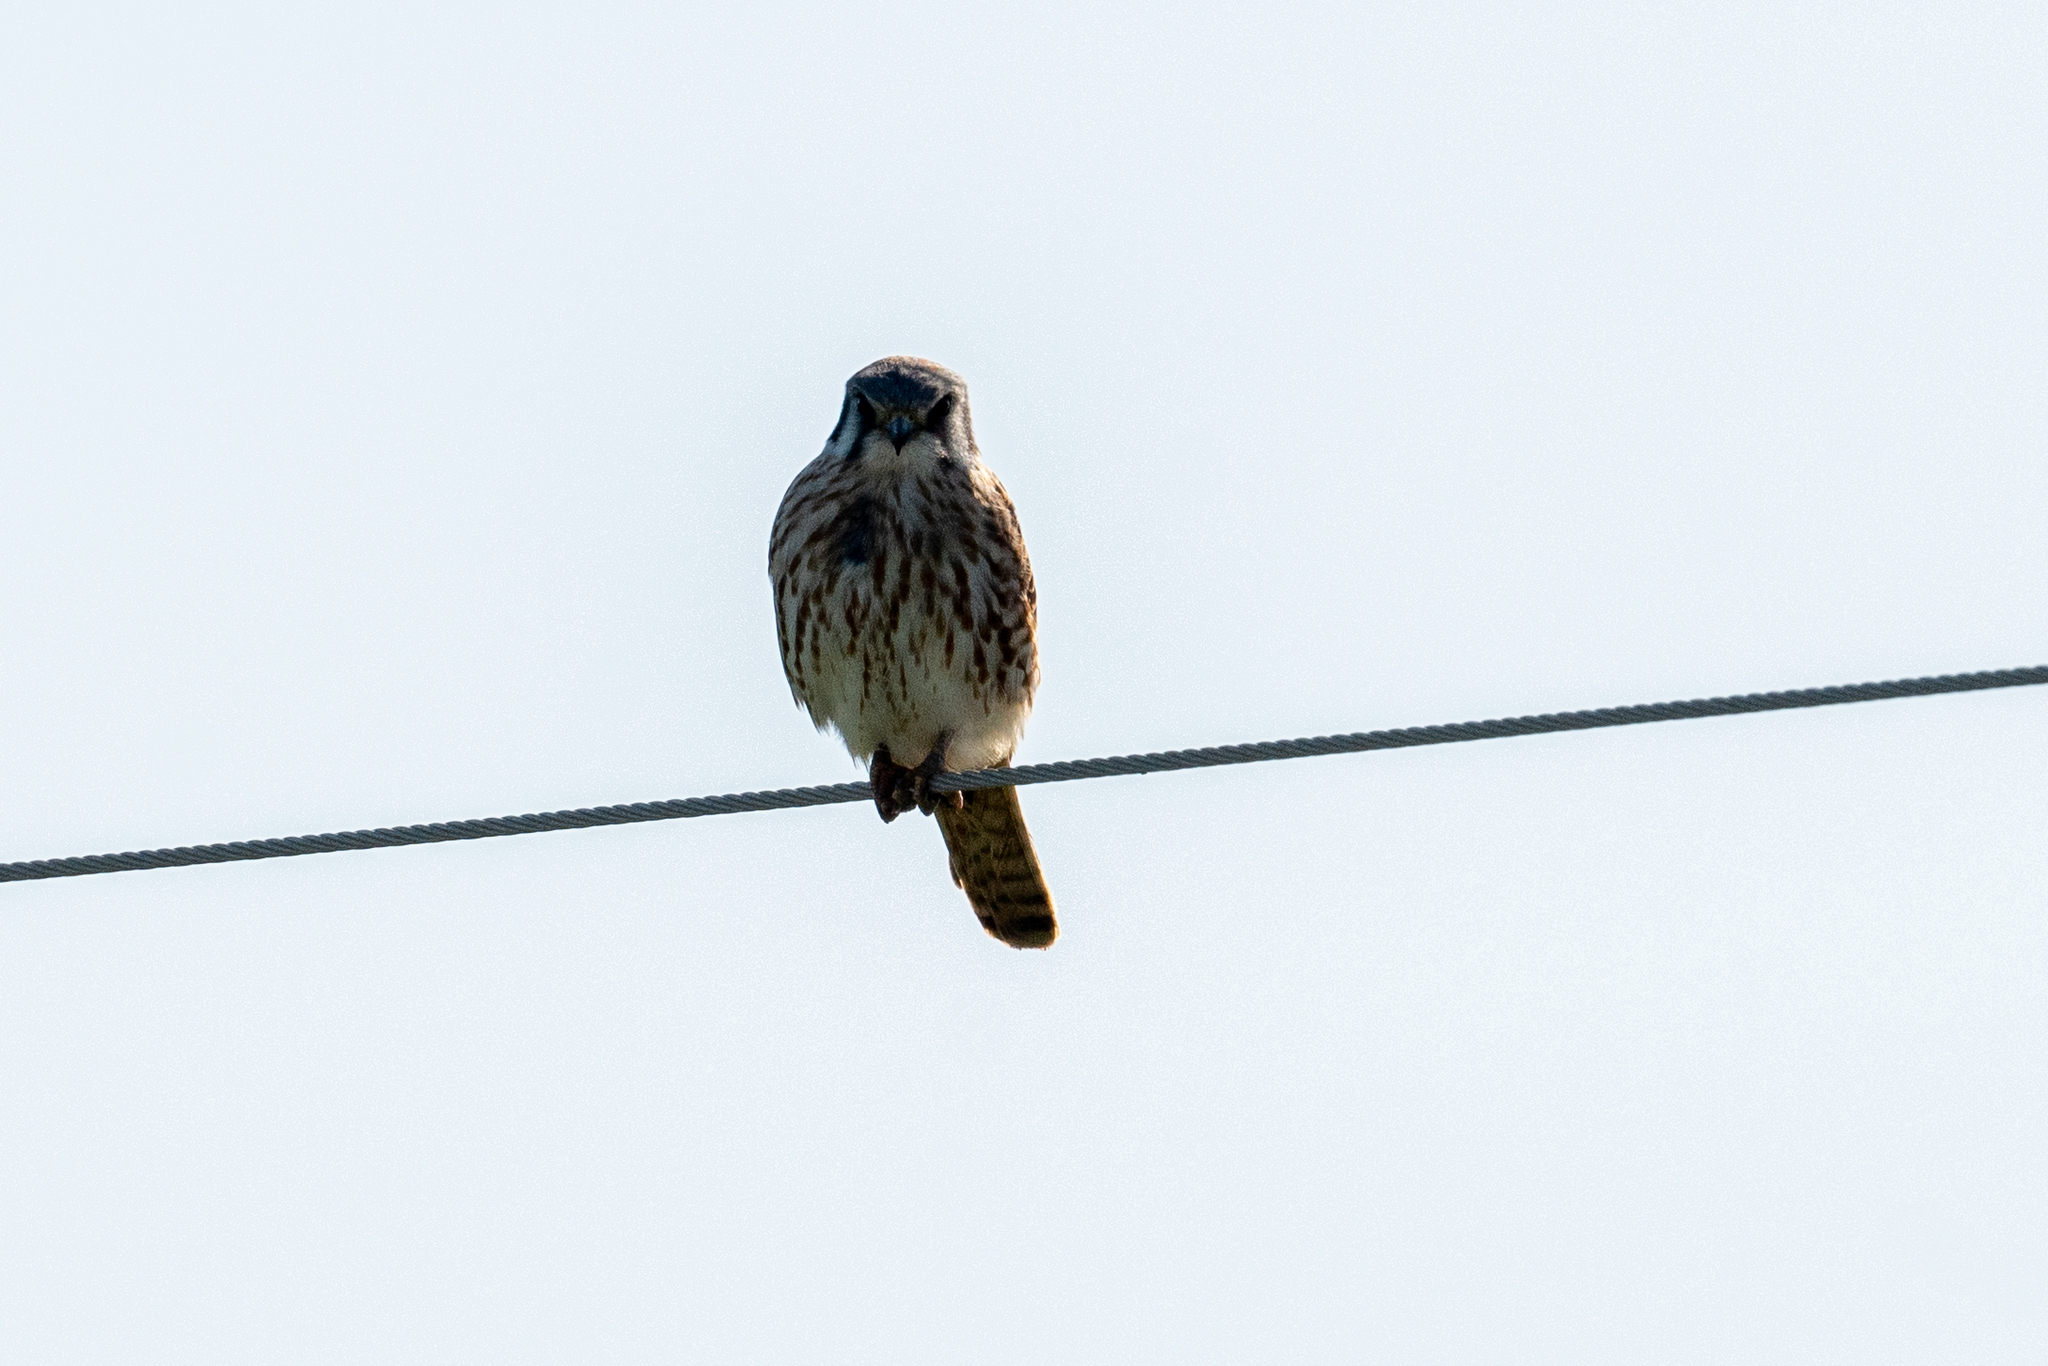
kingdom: Animalia
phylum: Chordata
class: Aves
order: Falconiformes
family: Falconidae
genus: Falco
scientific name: Falco sparverius
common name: American kestrel
